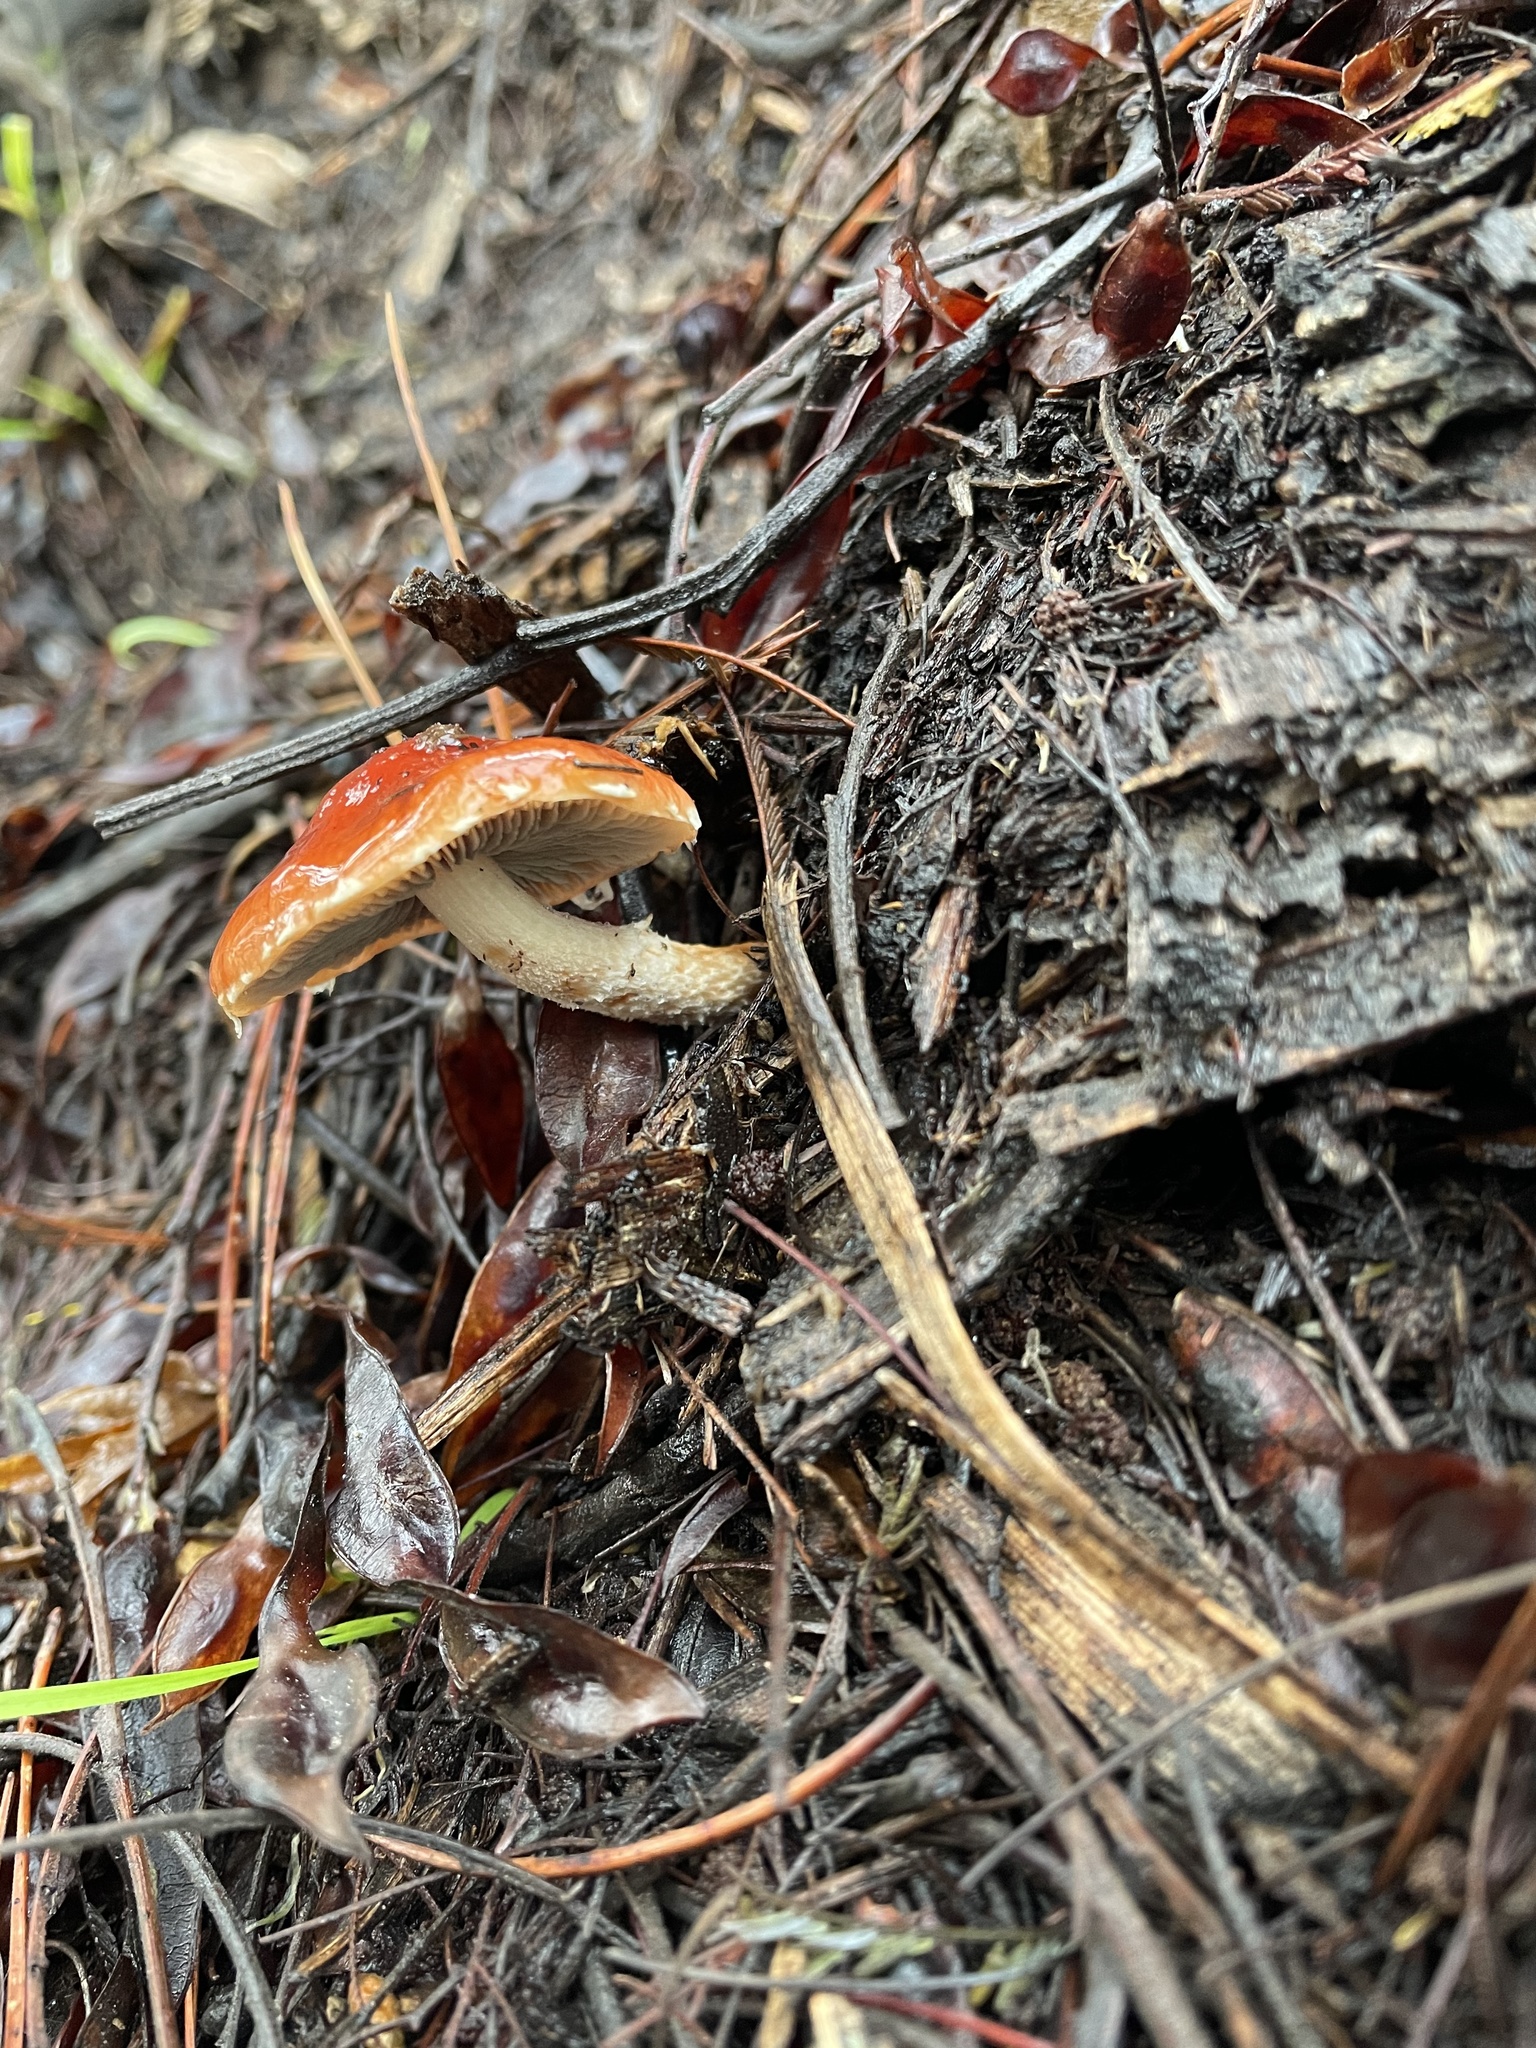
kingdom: Fungi
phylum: Basidiomycota
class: Agaricomycetes
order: Agaricales
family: Strophariaceae
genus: Leratiomyces
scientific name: Leratiomyces ceres
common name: Redlead roundhead
